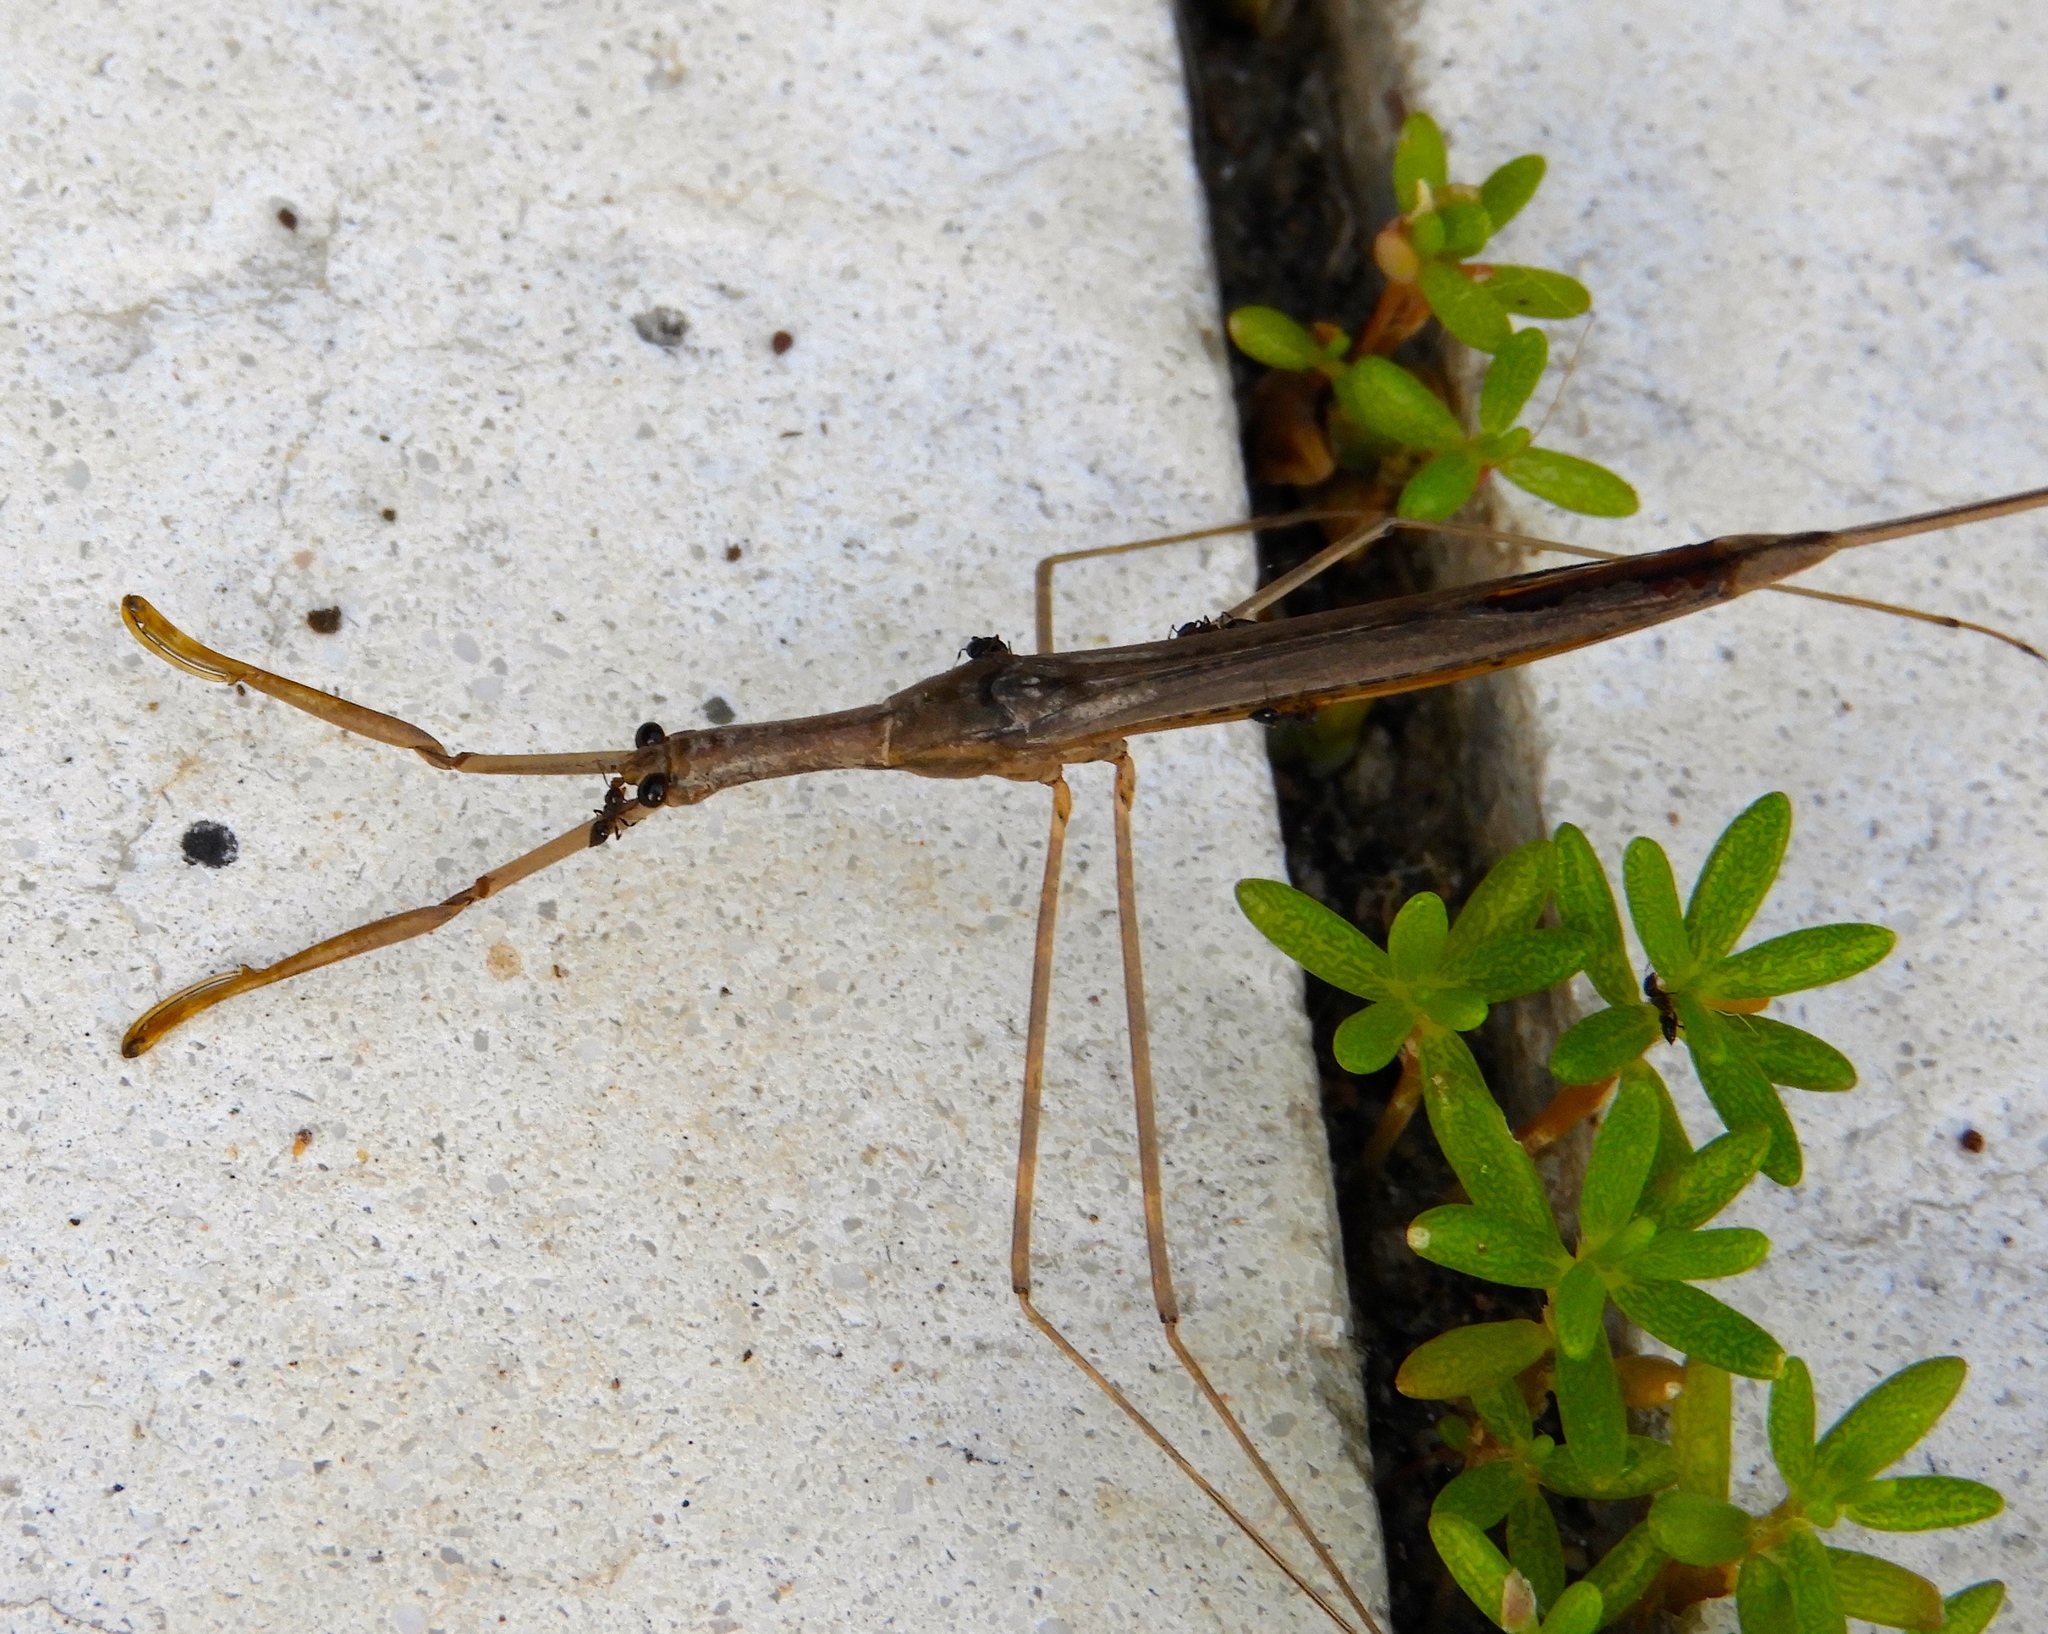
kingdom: Animalia
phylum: Arthropoda
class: Insecta
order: Hemiptera
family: Nepidae
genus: Ranatra
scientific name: Ranatra quadridentata
